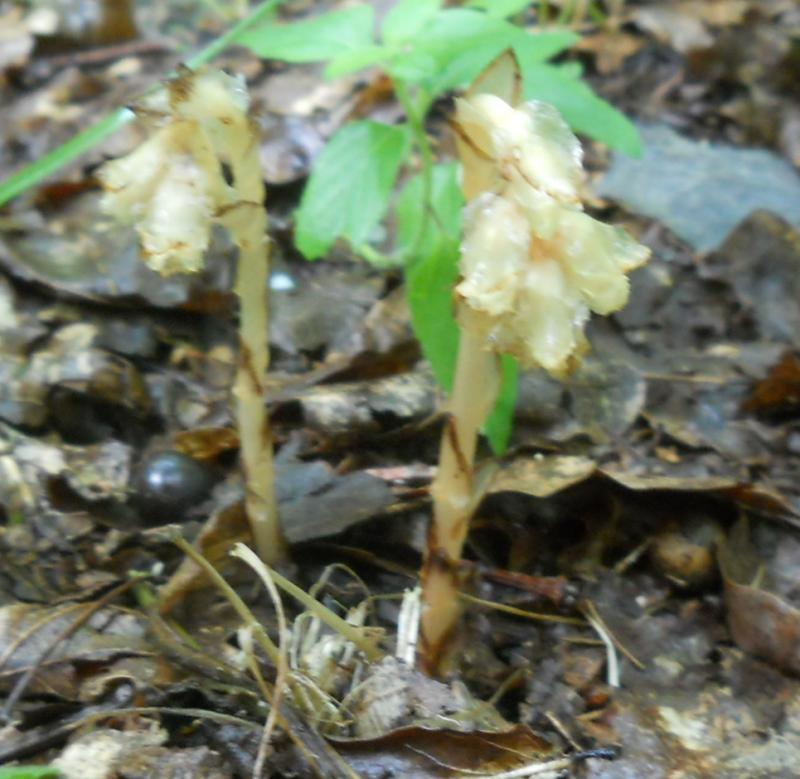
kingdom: Plantae
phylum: Tracheophyta
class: Magnoliopsida
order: Ericales
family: Ericaceae
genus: Hypopitys
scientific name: Hypopitys monotropa
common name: Yellow bird's-nest
